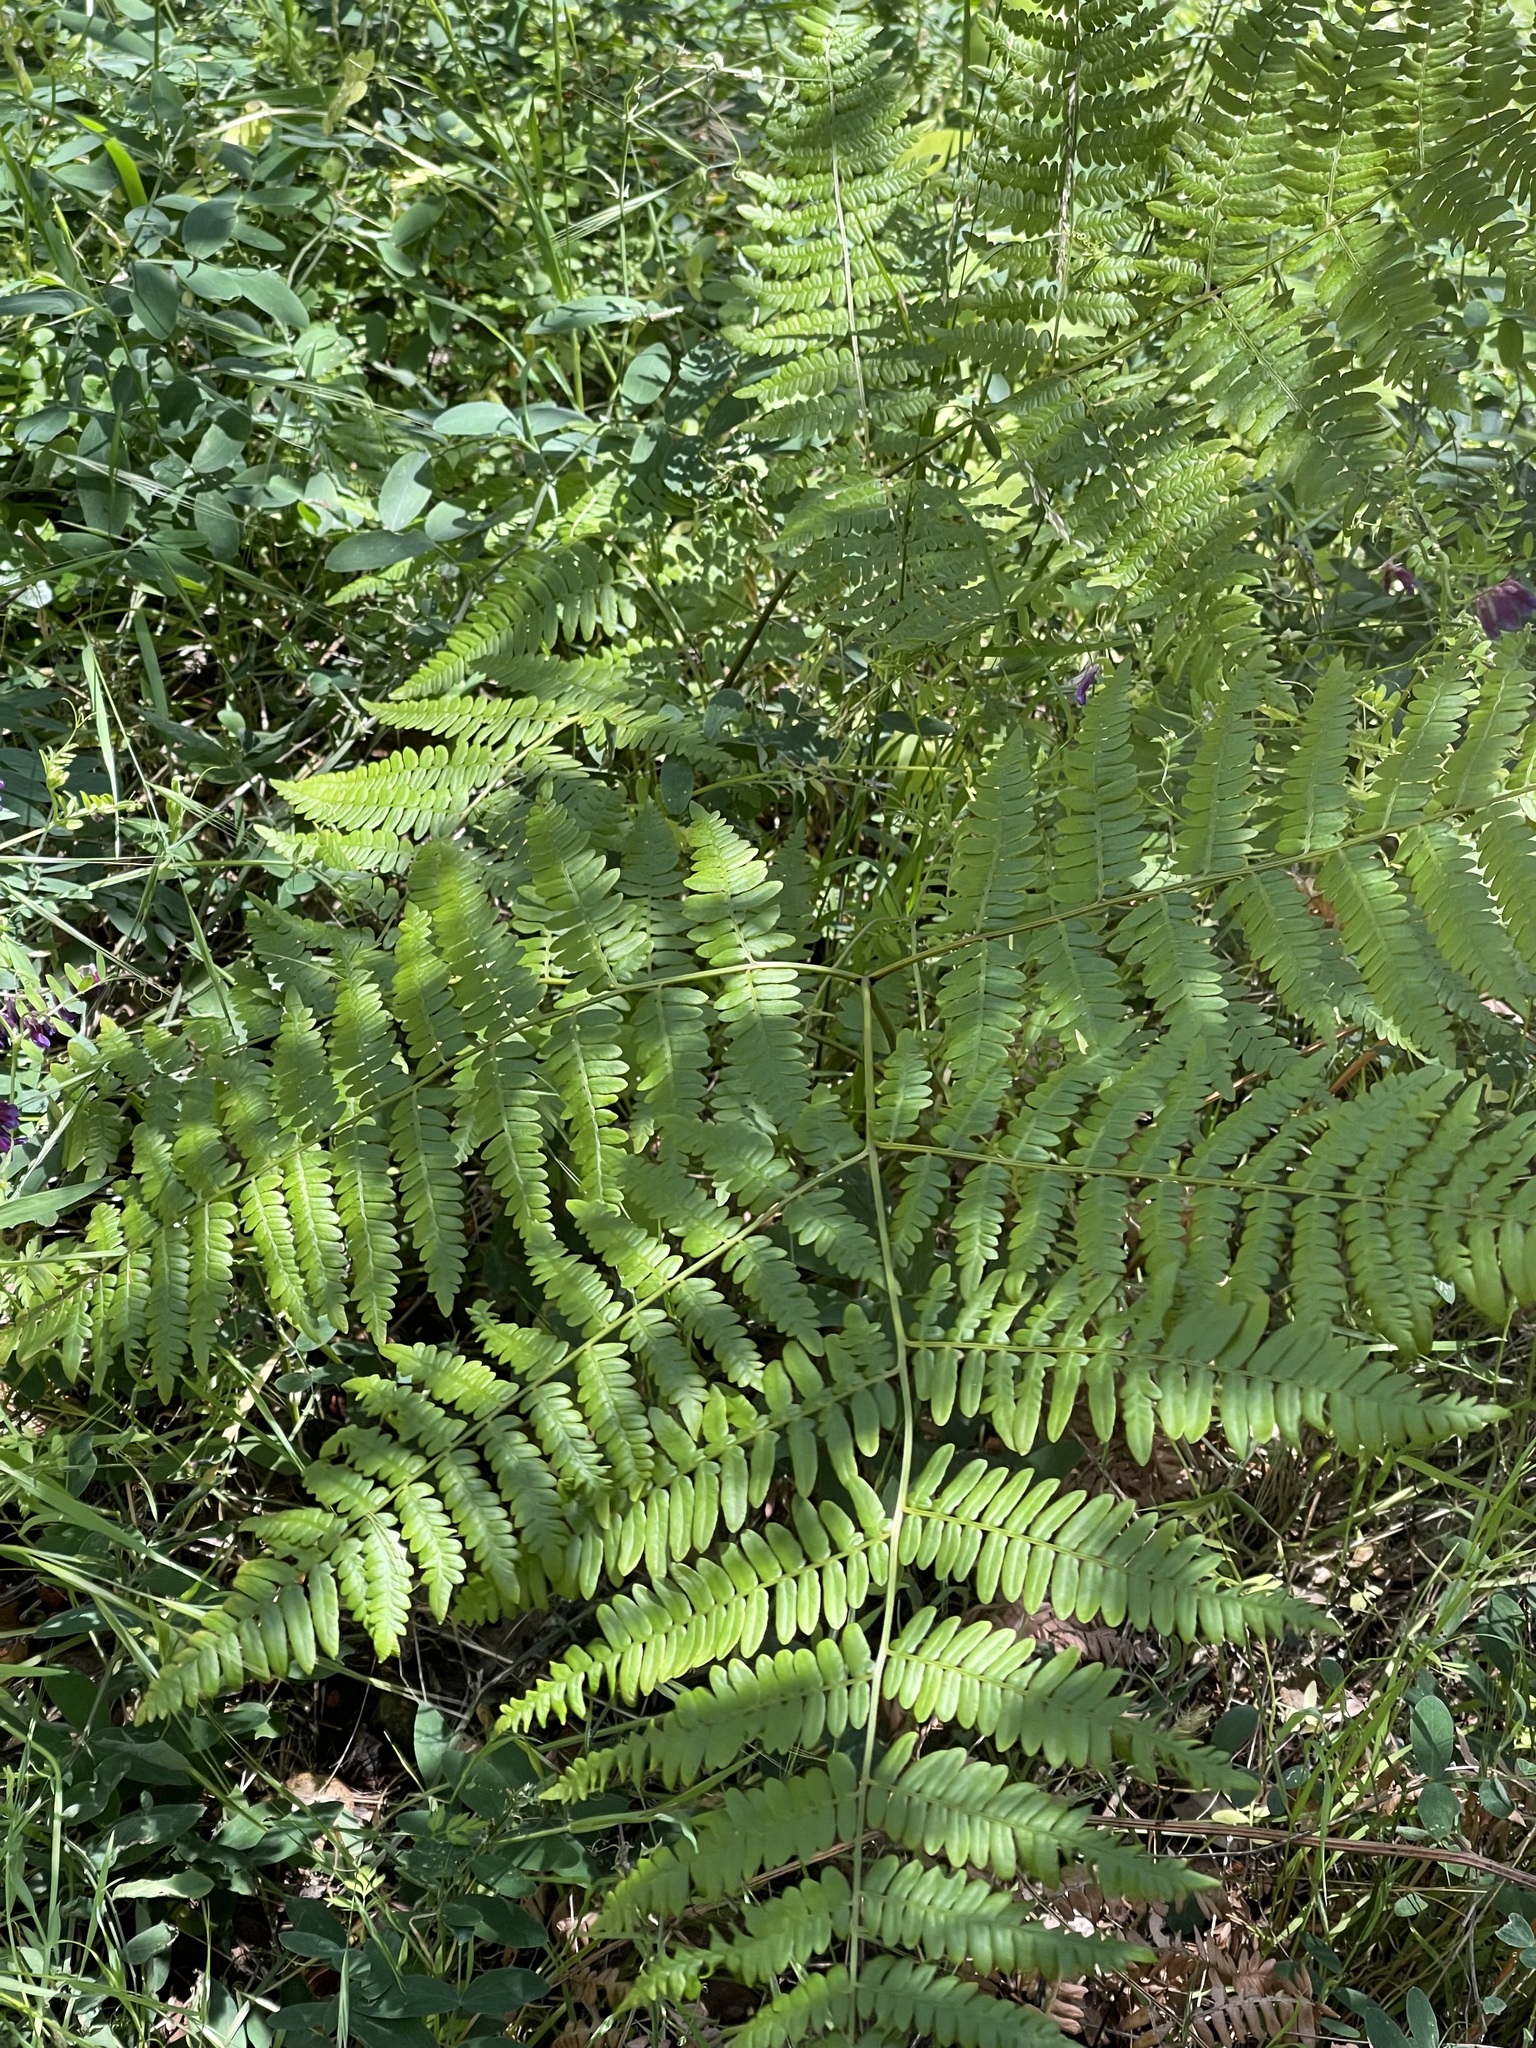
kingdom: Plantae
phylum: Tracheophyta
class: Polypodiopsida
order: Polypodiales
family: Dennstaedtiaceae
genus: Pteridium
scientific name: Pteridium aquilinum
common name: Bracken
